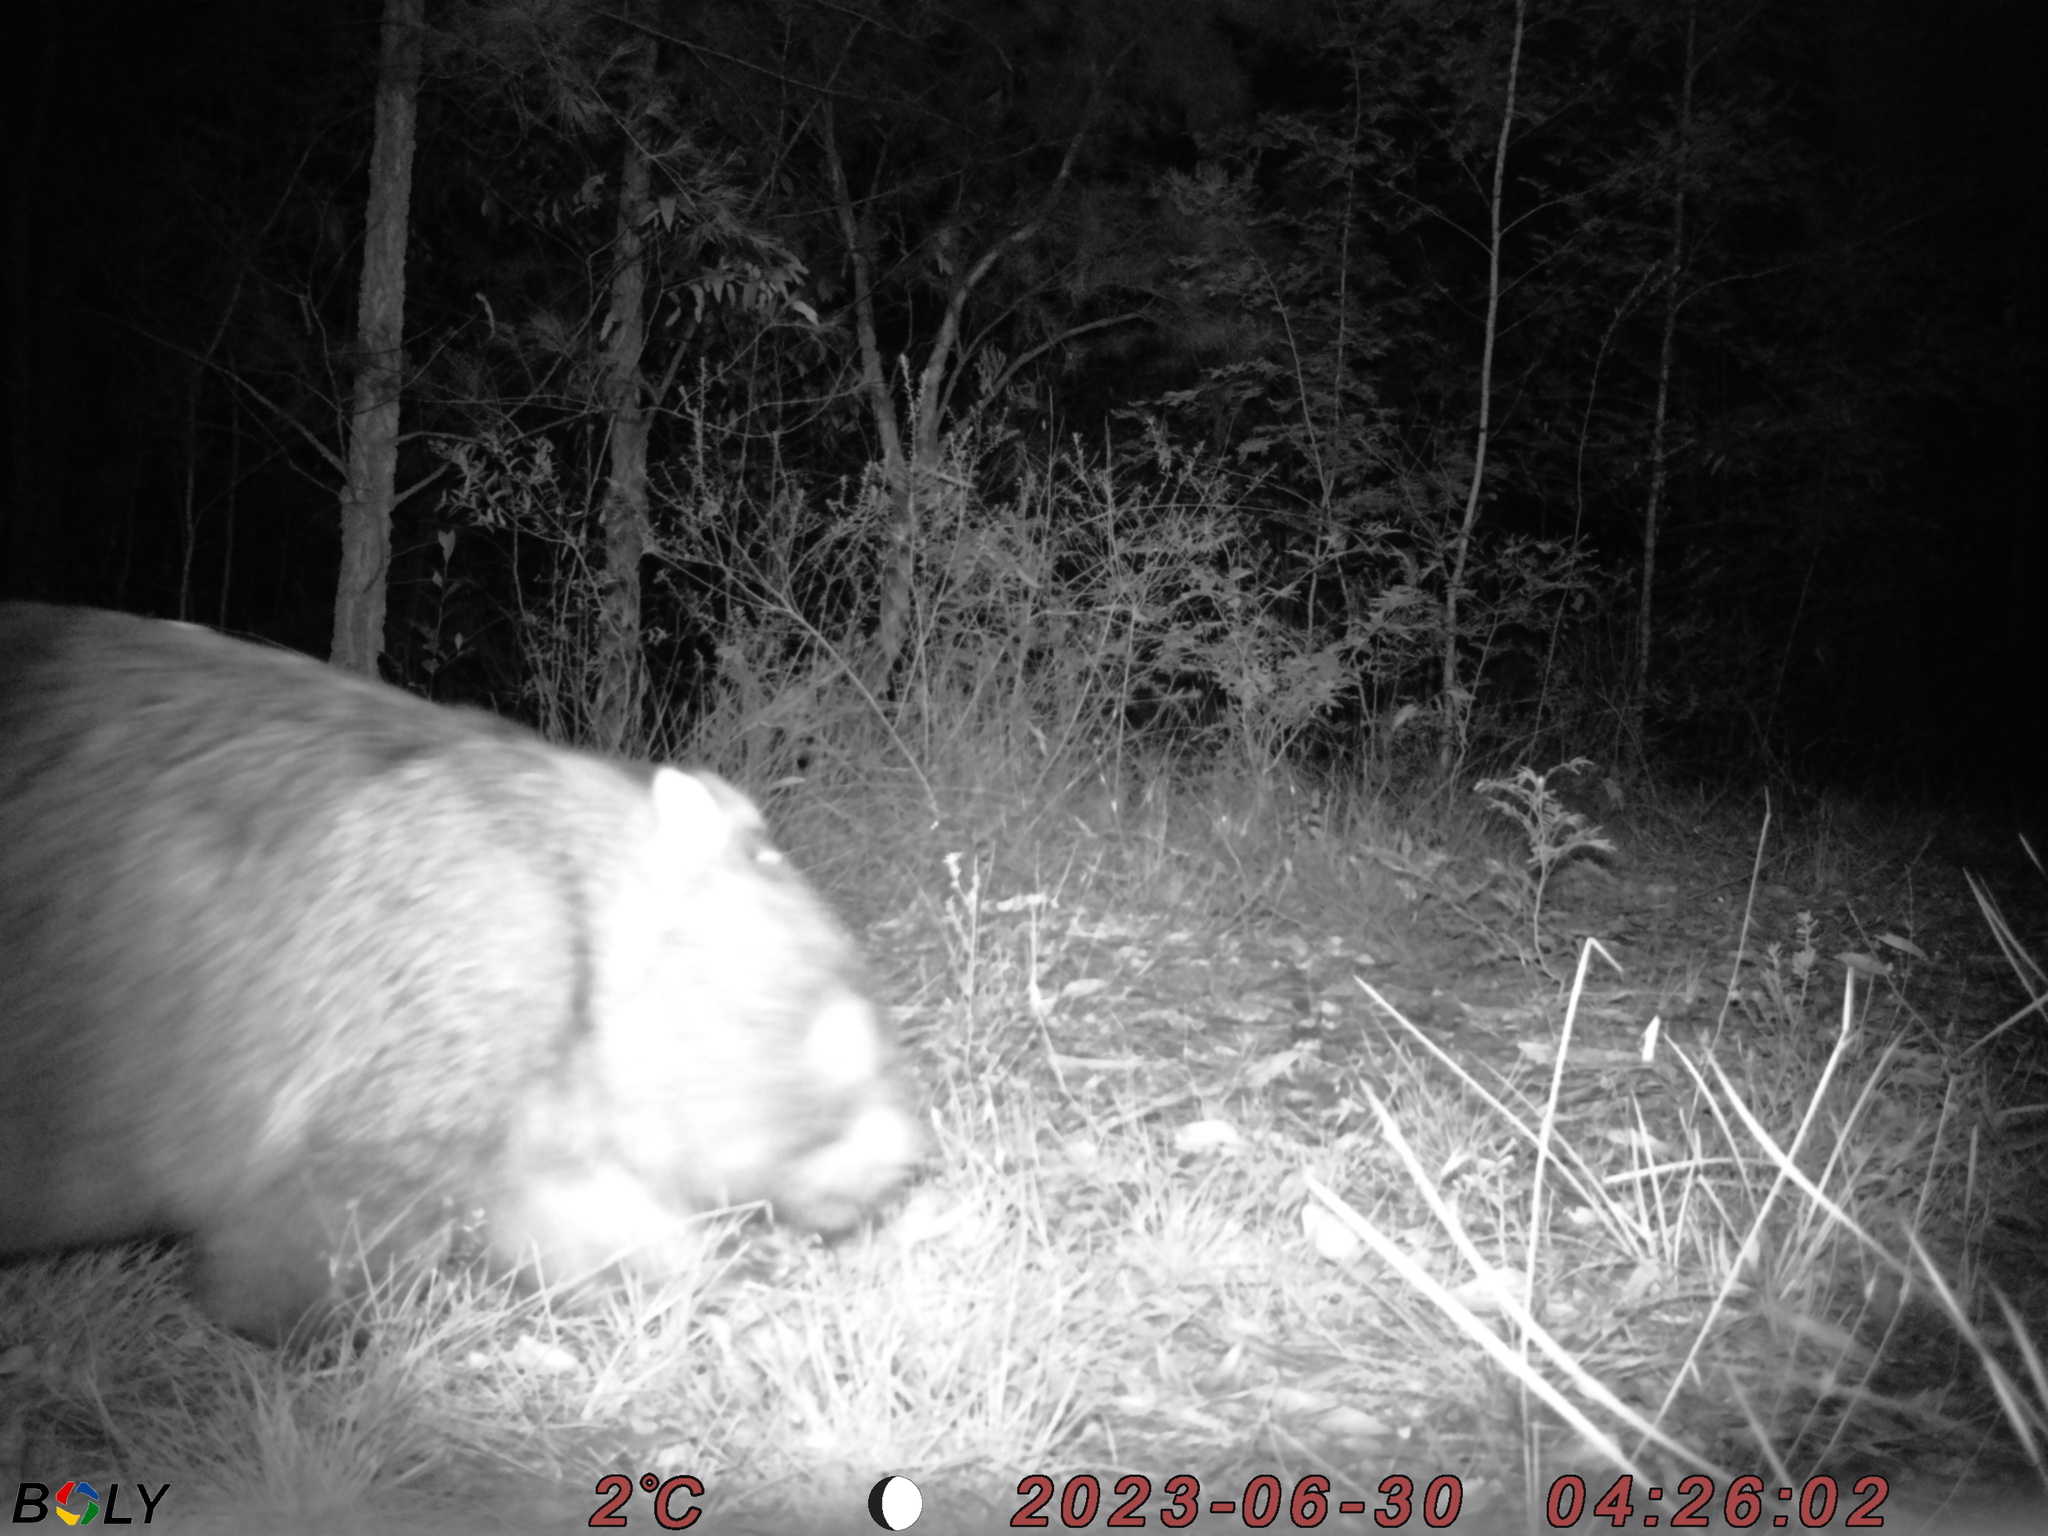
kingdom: Animalia
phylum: Chordata
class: Mammalia
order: Diprotodontia
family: Vombatidae
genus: Vombatus
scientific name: Vombatus ursinus
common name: Common wombat
